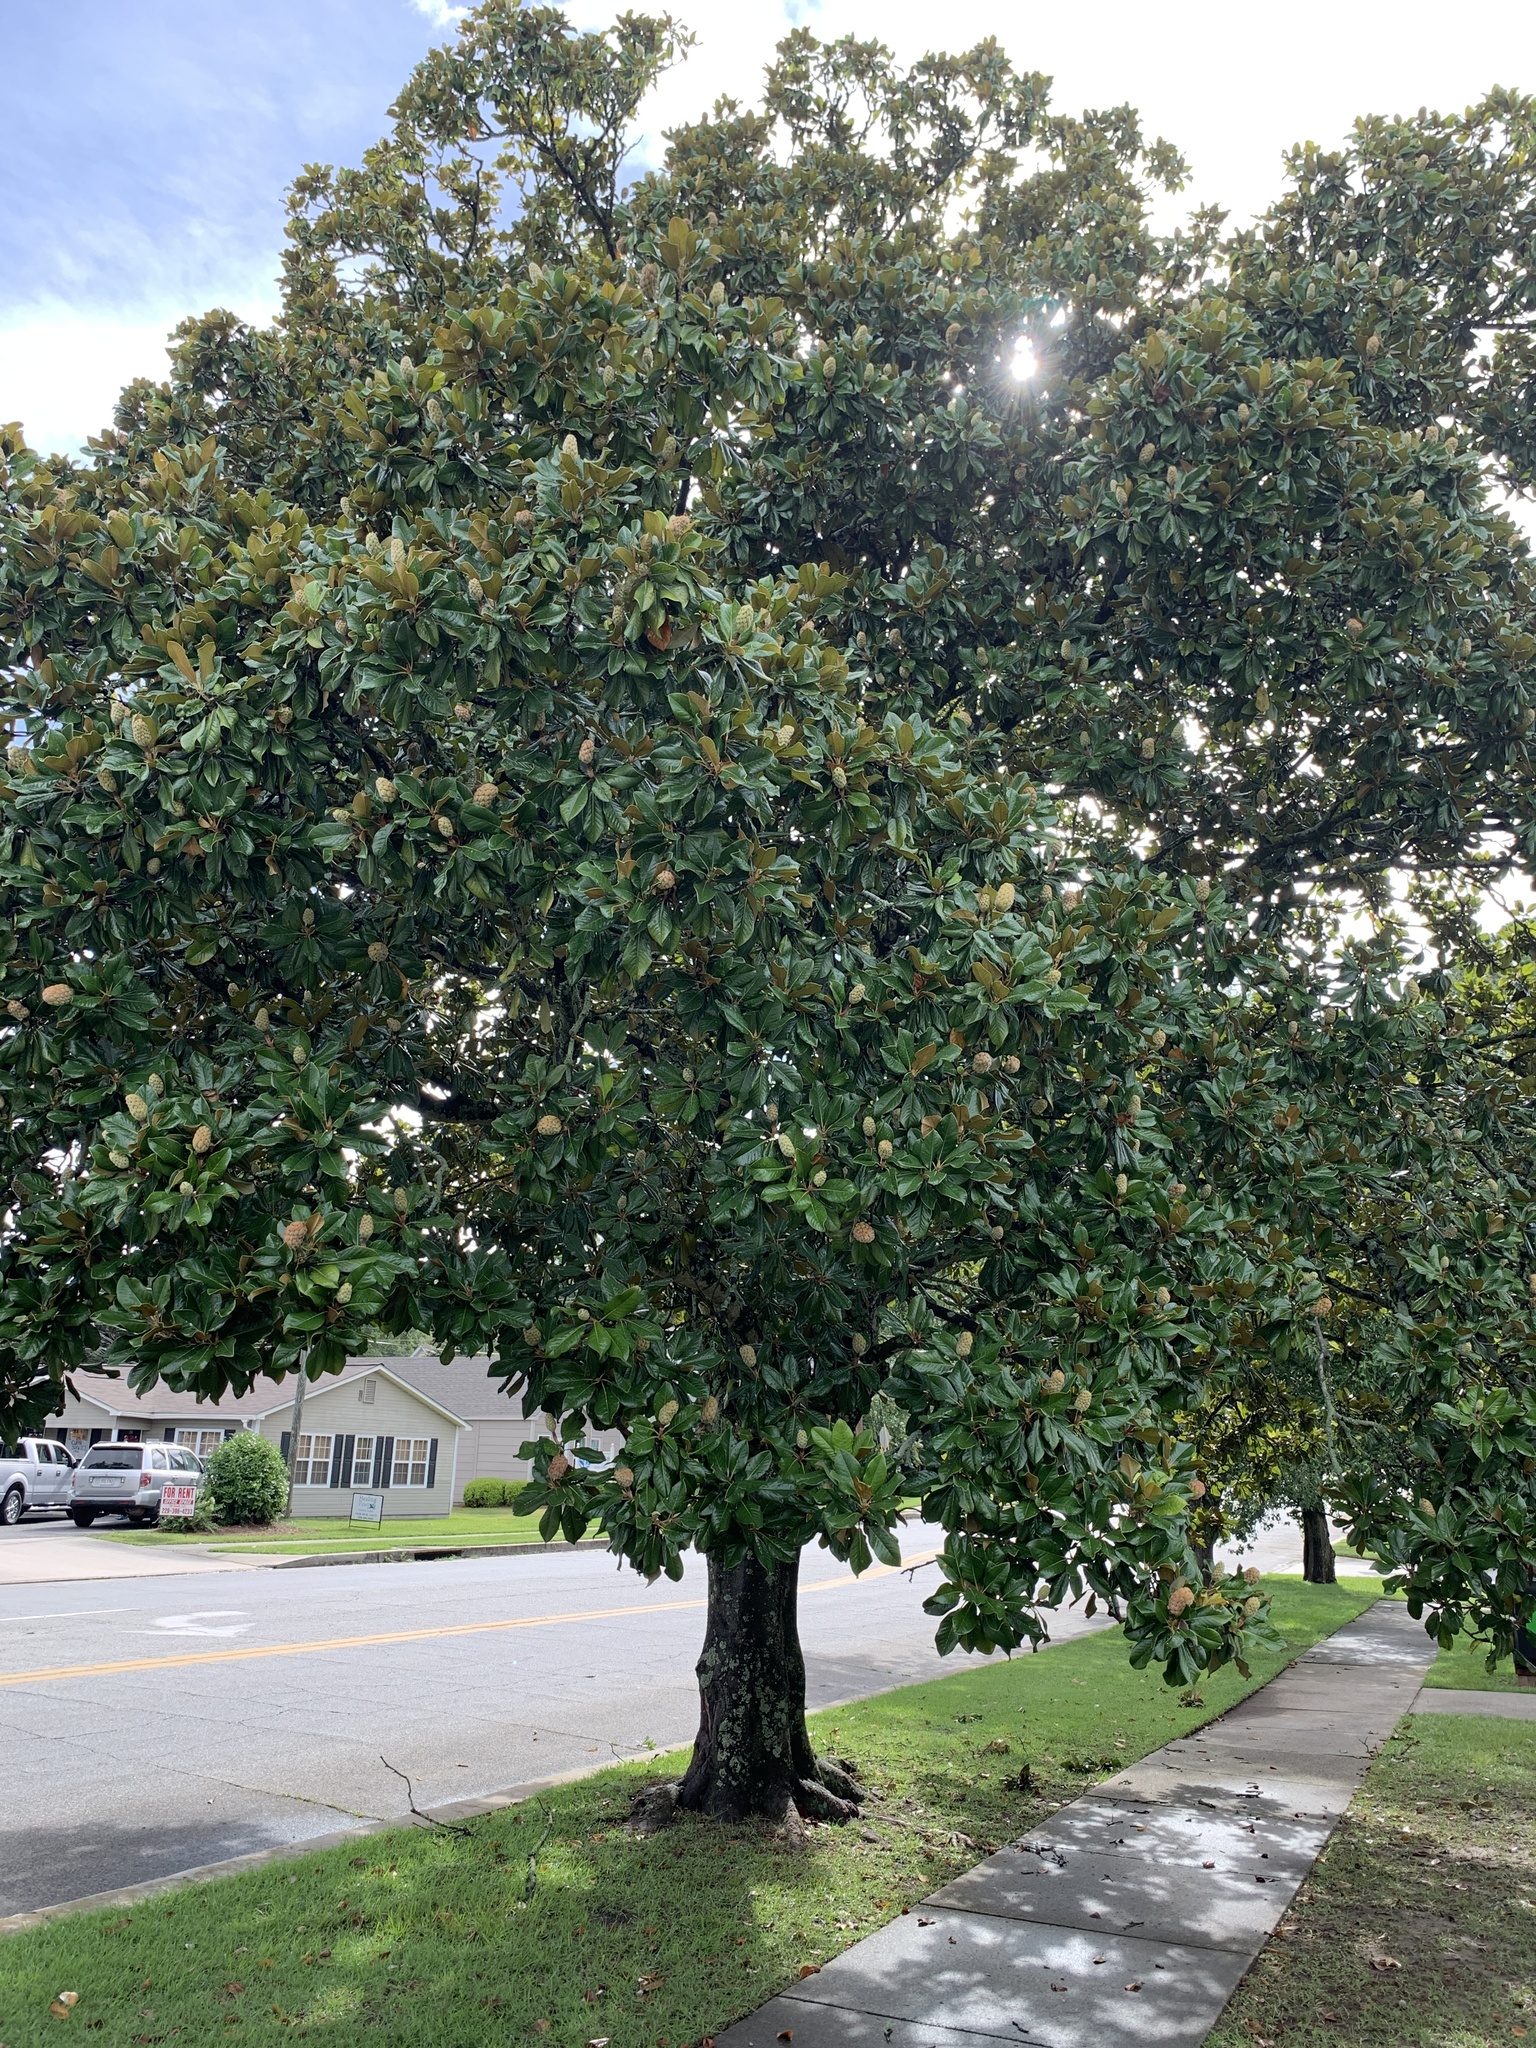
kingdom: Plantae
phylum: Tracheophyta
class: Magnoliopsida
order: Magnoliales
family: Magnoliaceae
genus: Magnolia
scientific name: Magnolia grandiflora
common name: Southern magnolia
